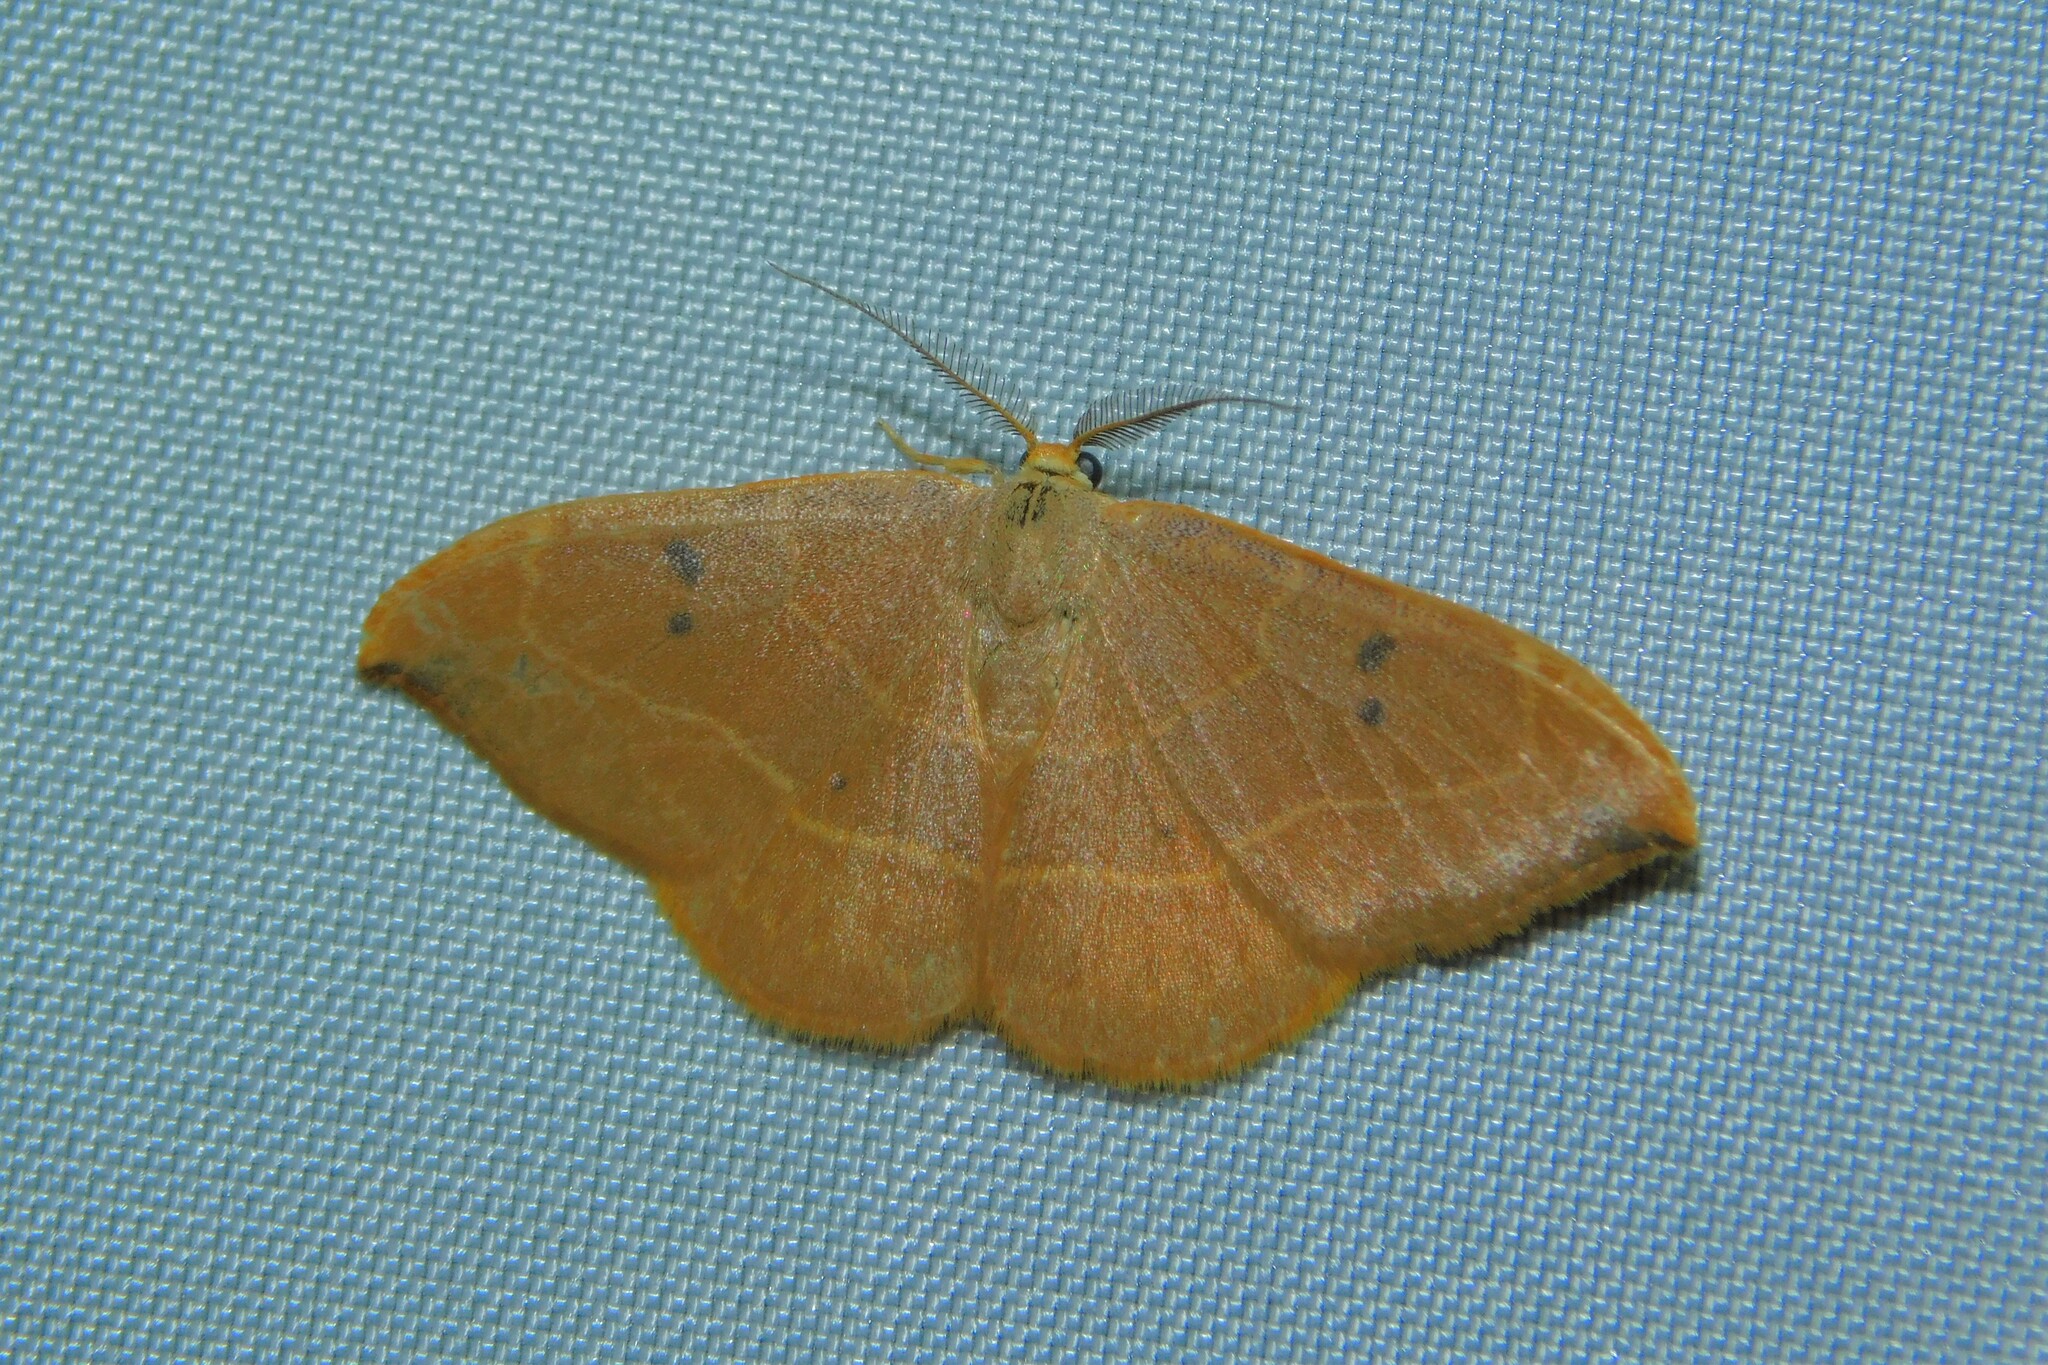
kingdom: Animalia
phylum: Arthropoda
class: Insecta
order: Lepidoptera
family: Drepanidae
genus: Watsonalla
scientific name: Watsonalla binaria
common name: Oak hook-tip
